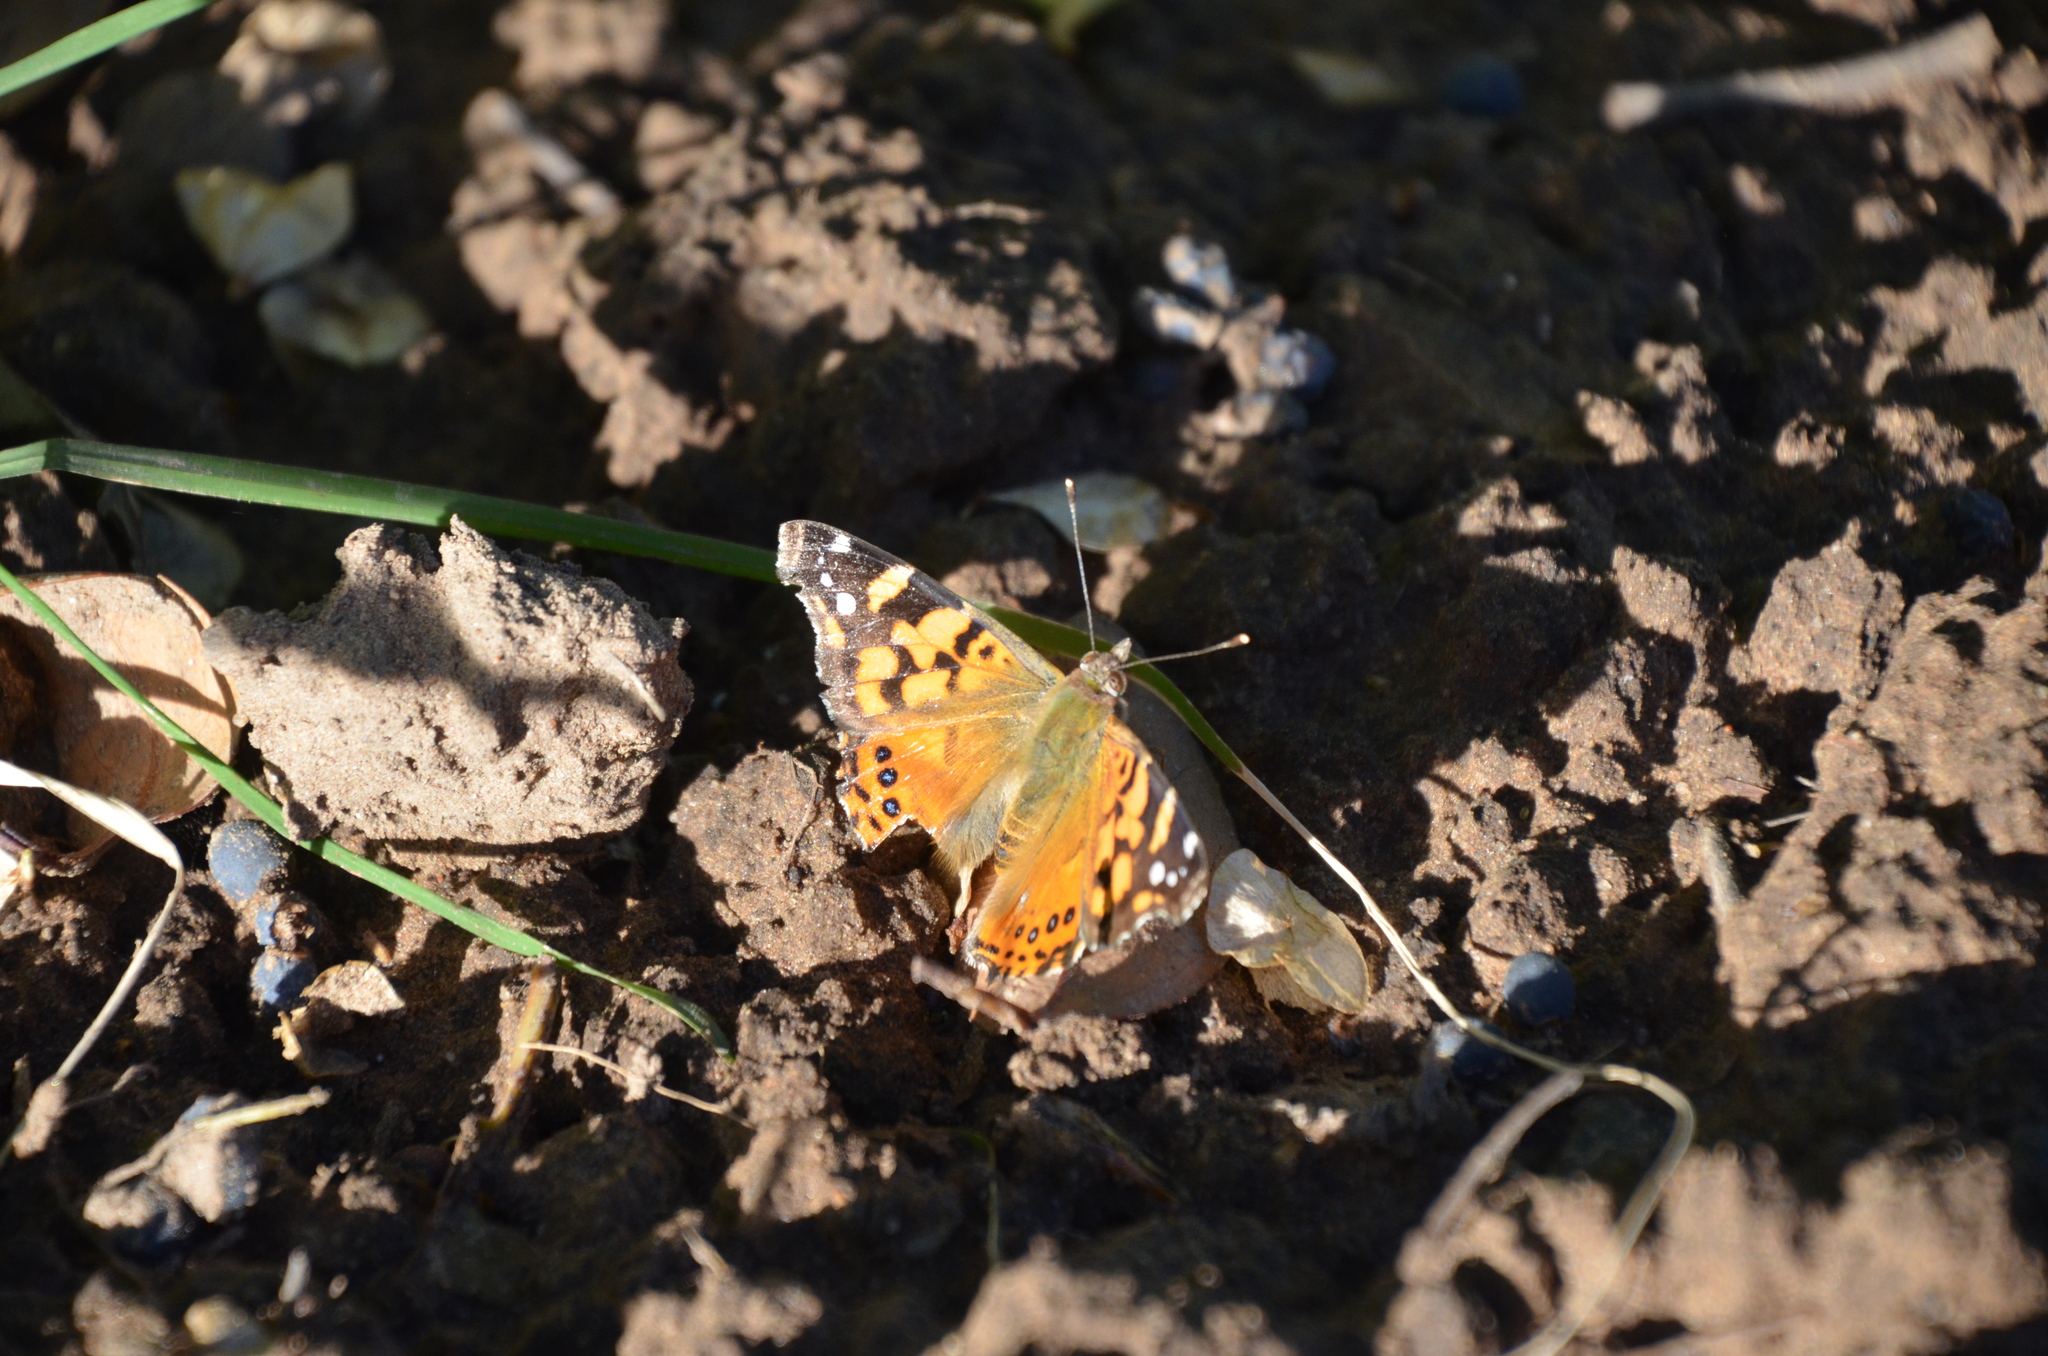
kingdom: Animalia
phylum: Arthropoda
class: Insecta
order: Lepidoptera
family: Nymphalidae
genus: Vanessa
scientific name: Vanessa carye
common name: Subtropical lady
